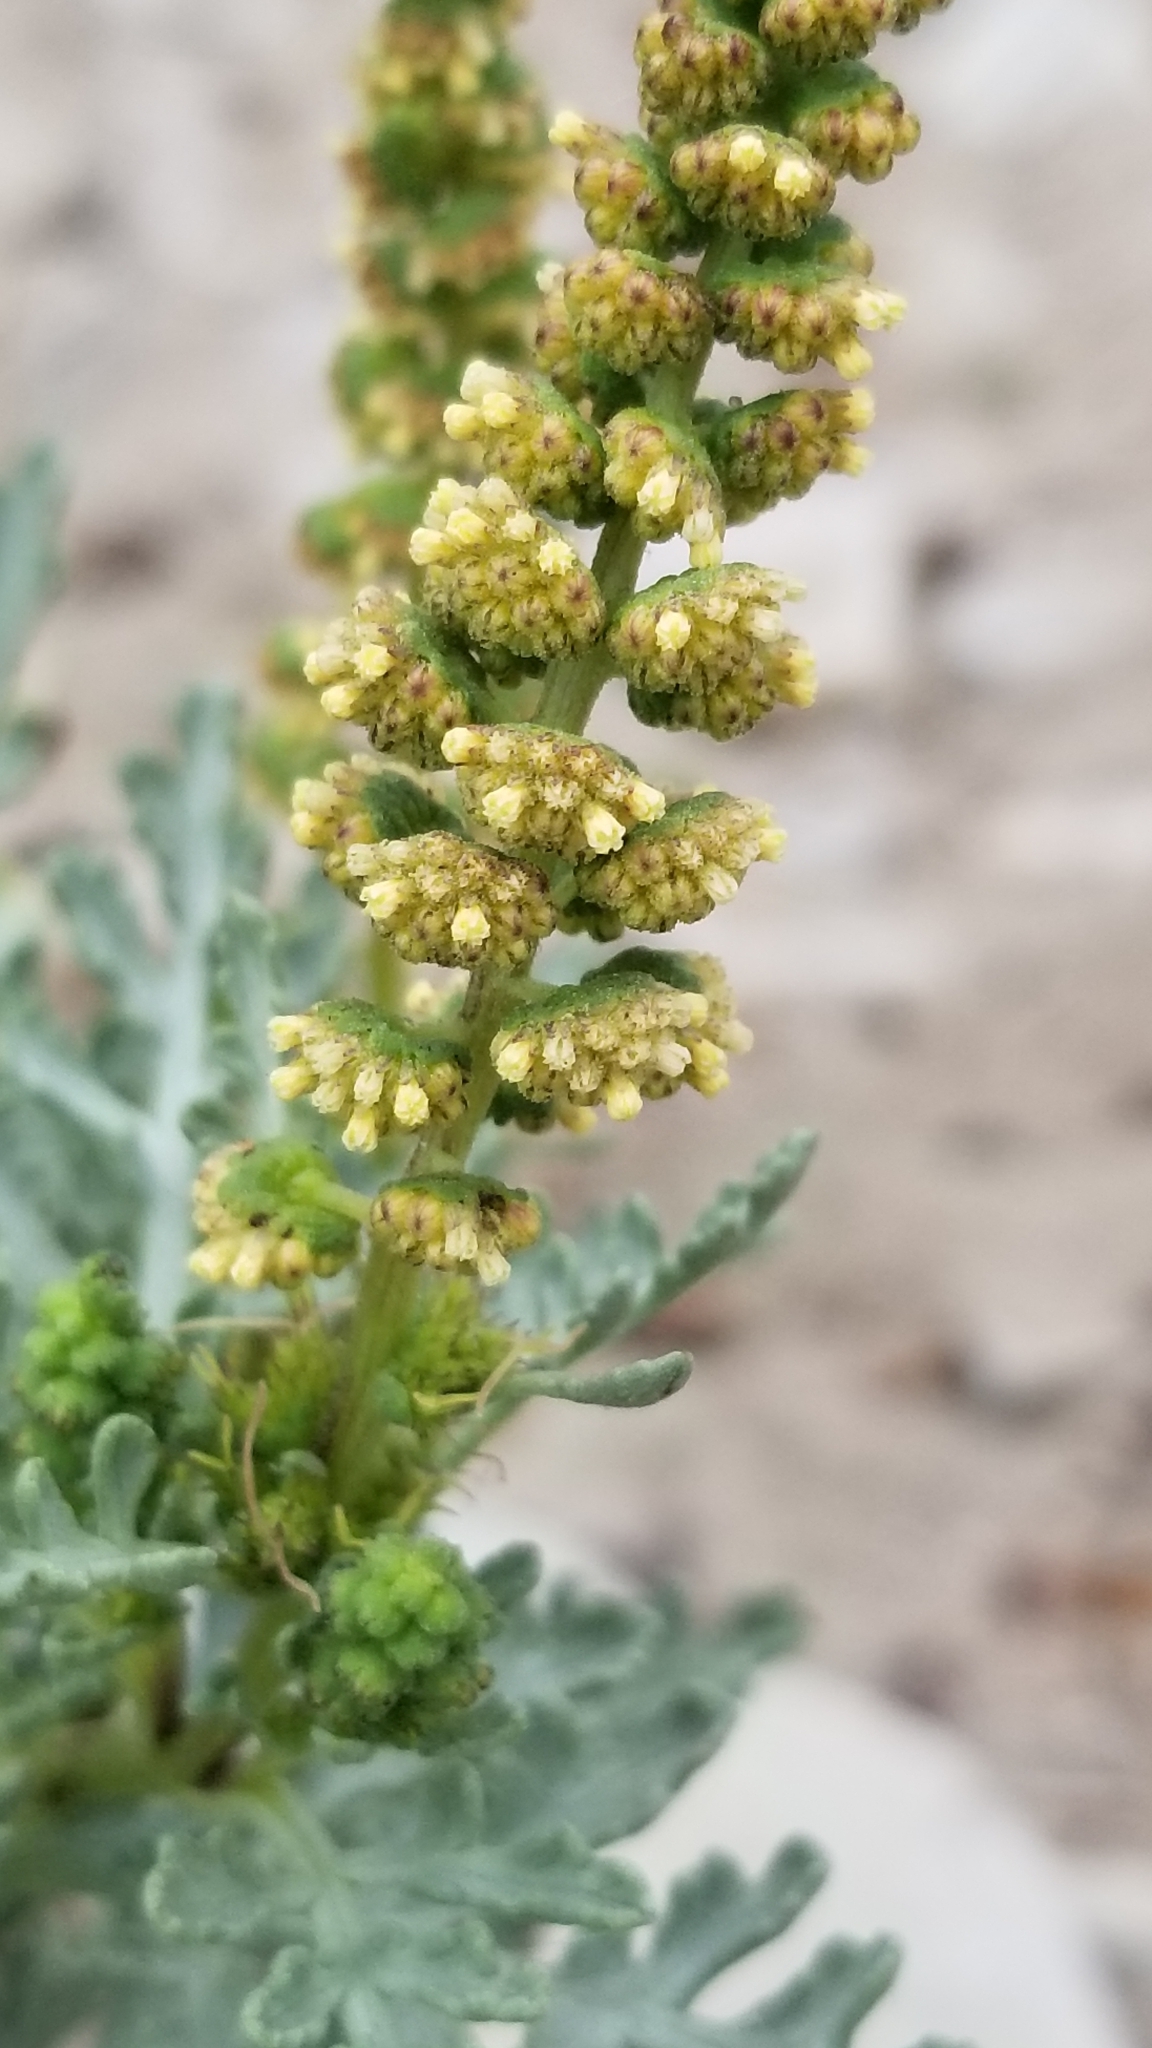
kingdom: Plantae
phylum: Tracheophyta
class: Magnoliopsida
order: Asterales
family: Asteraceae
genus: Ambrosia
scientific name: Ambrosia chamissonis
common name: Beachbur
